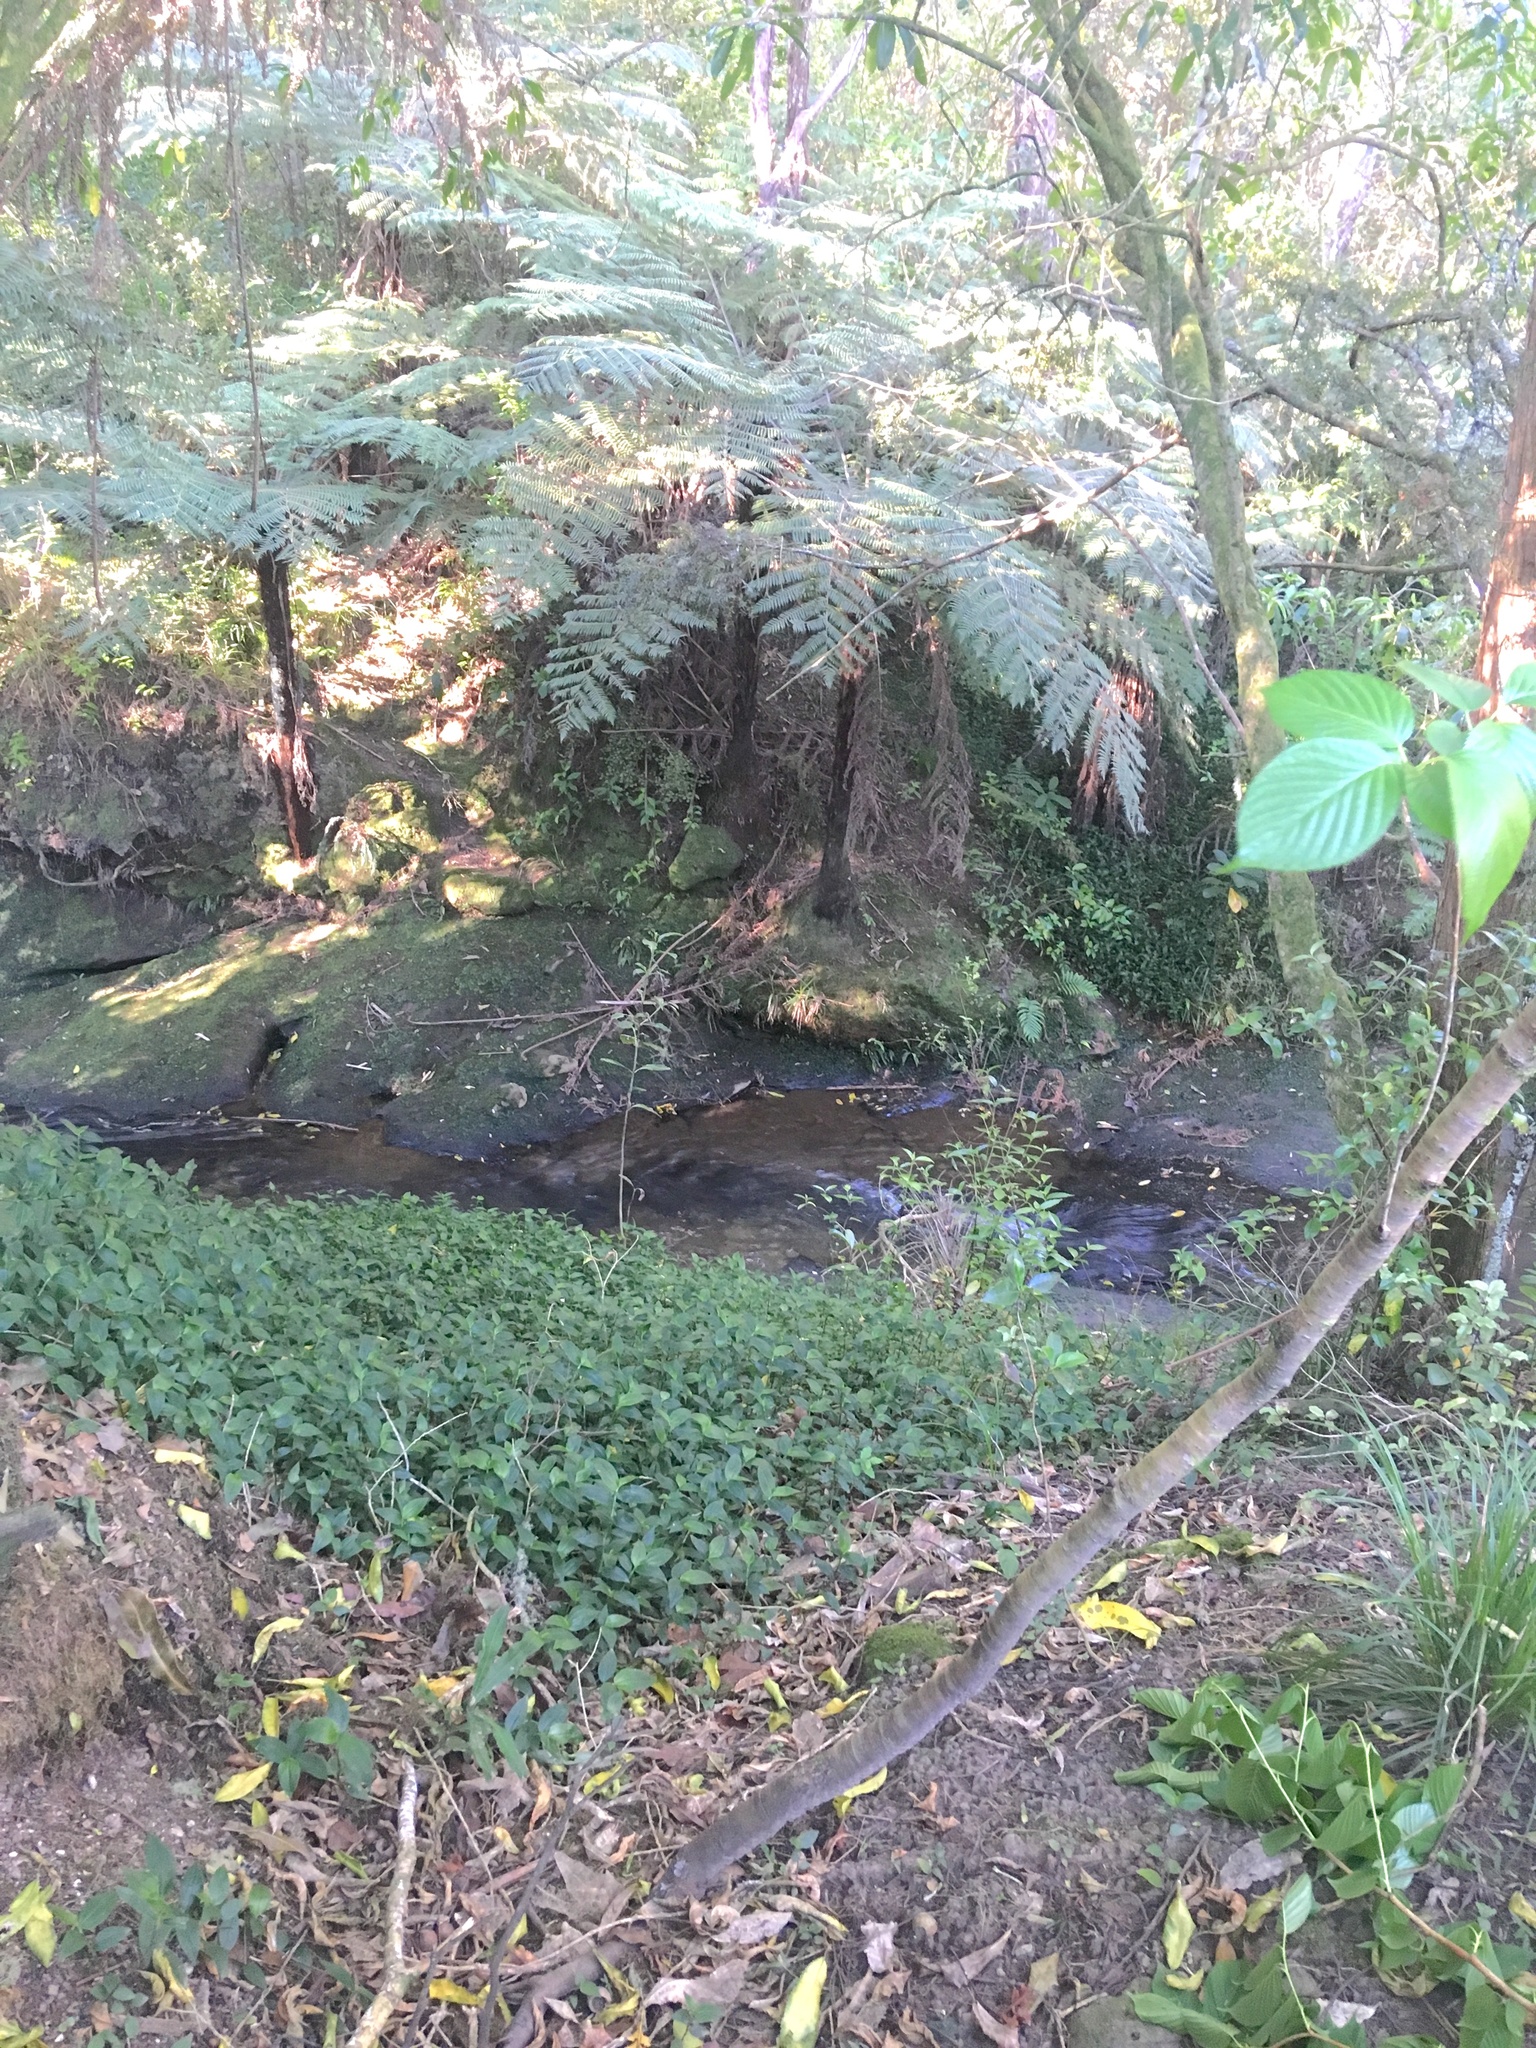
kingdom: Plantae
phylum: Tracheophyta
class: Liliopsida
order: Commelinales
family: Commelinaceae
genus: Tradescantia
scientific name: Tradescantia fluminensis
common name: Wandering-jew
